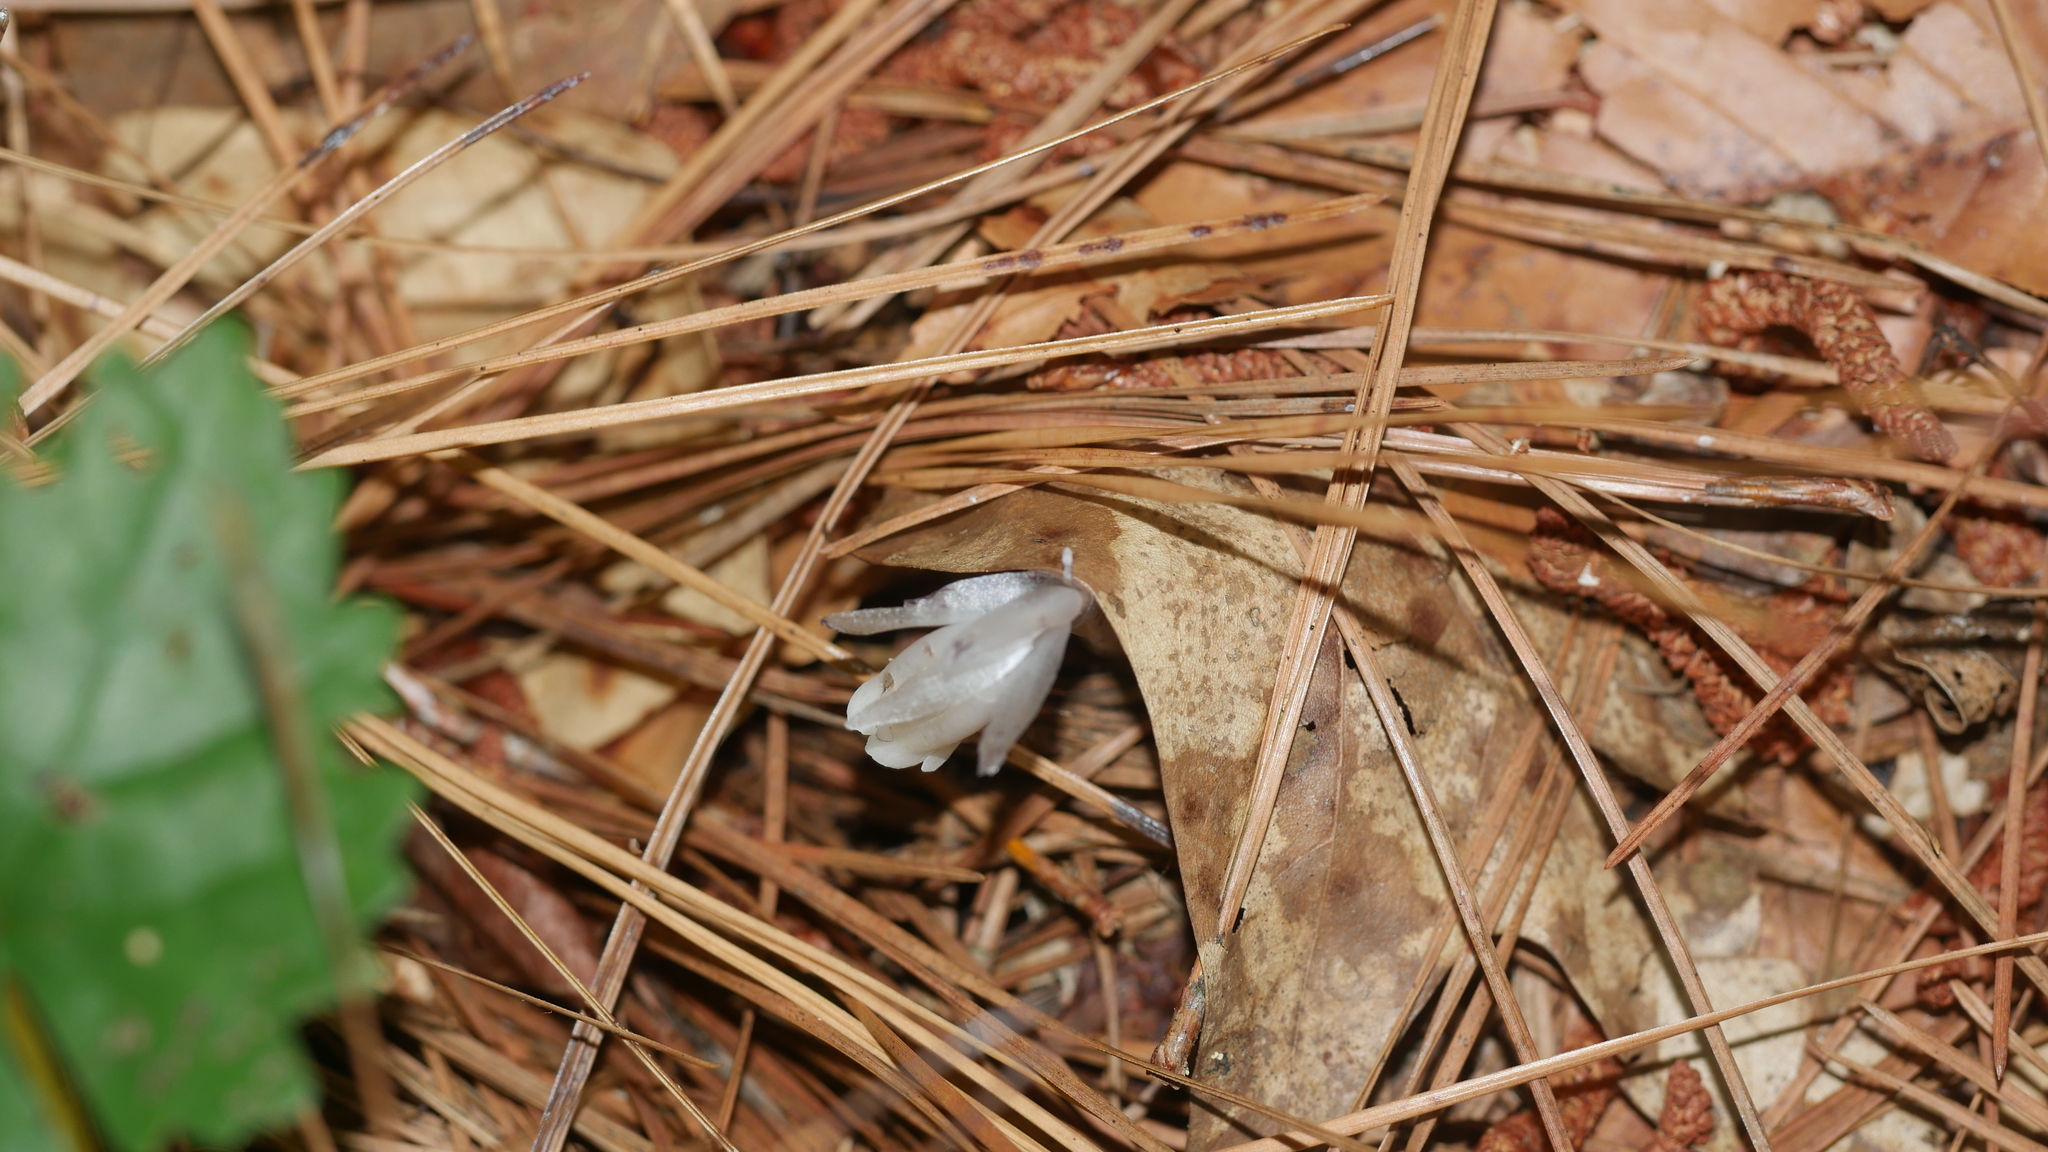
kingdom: Plantae
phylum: Tracheophyta
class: Magnoliopsida
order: Ericales
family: Ericaceae
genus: Monotropa
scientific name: Monotropa uniflora
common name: Convulsion root
